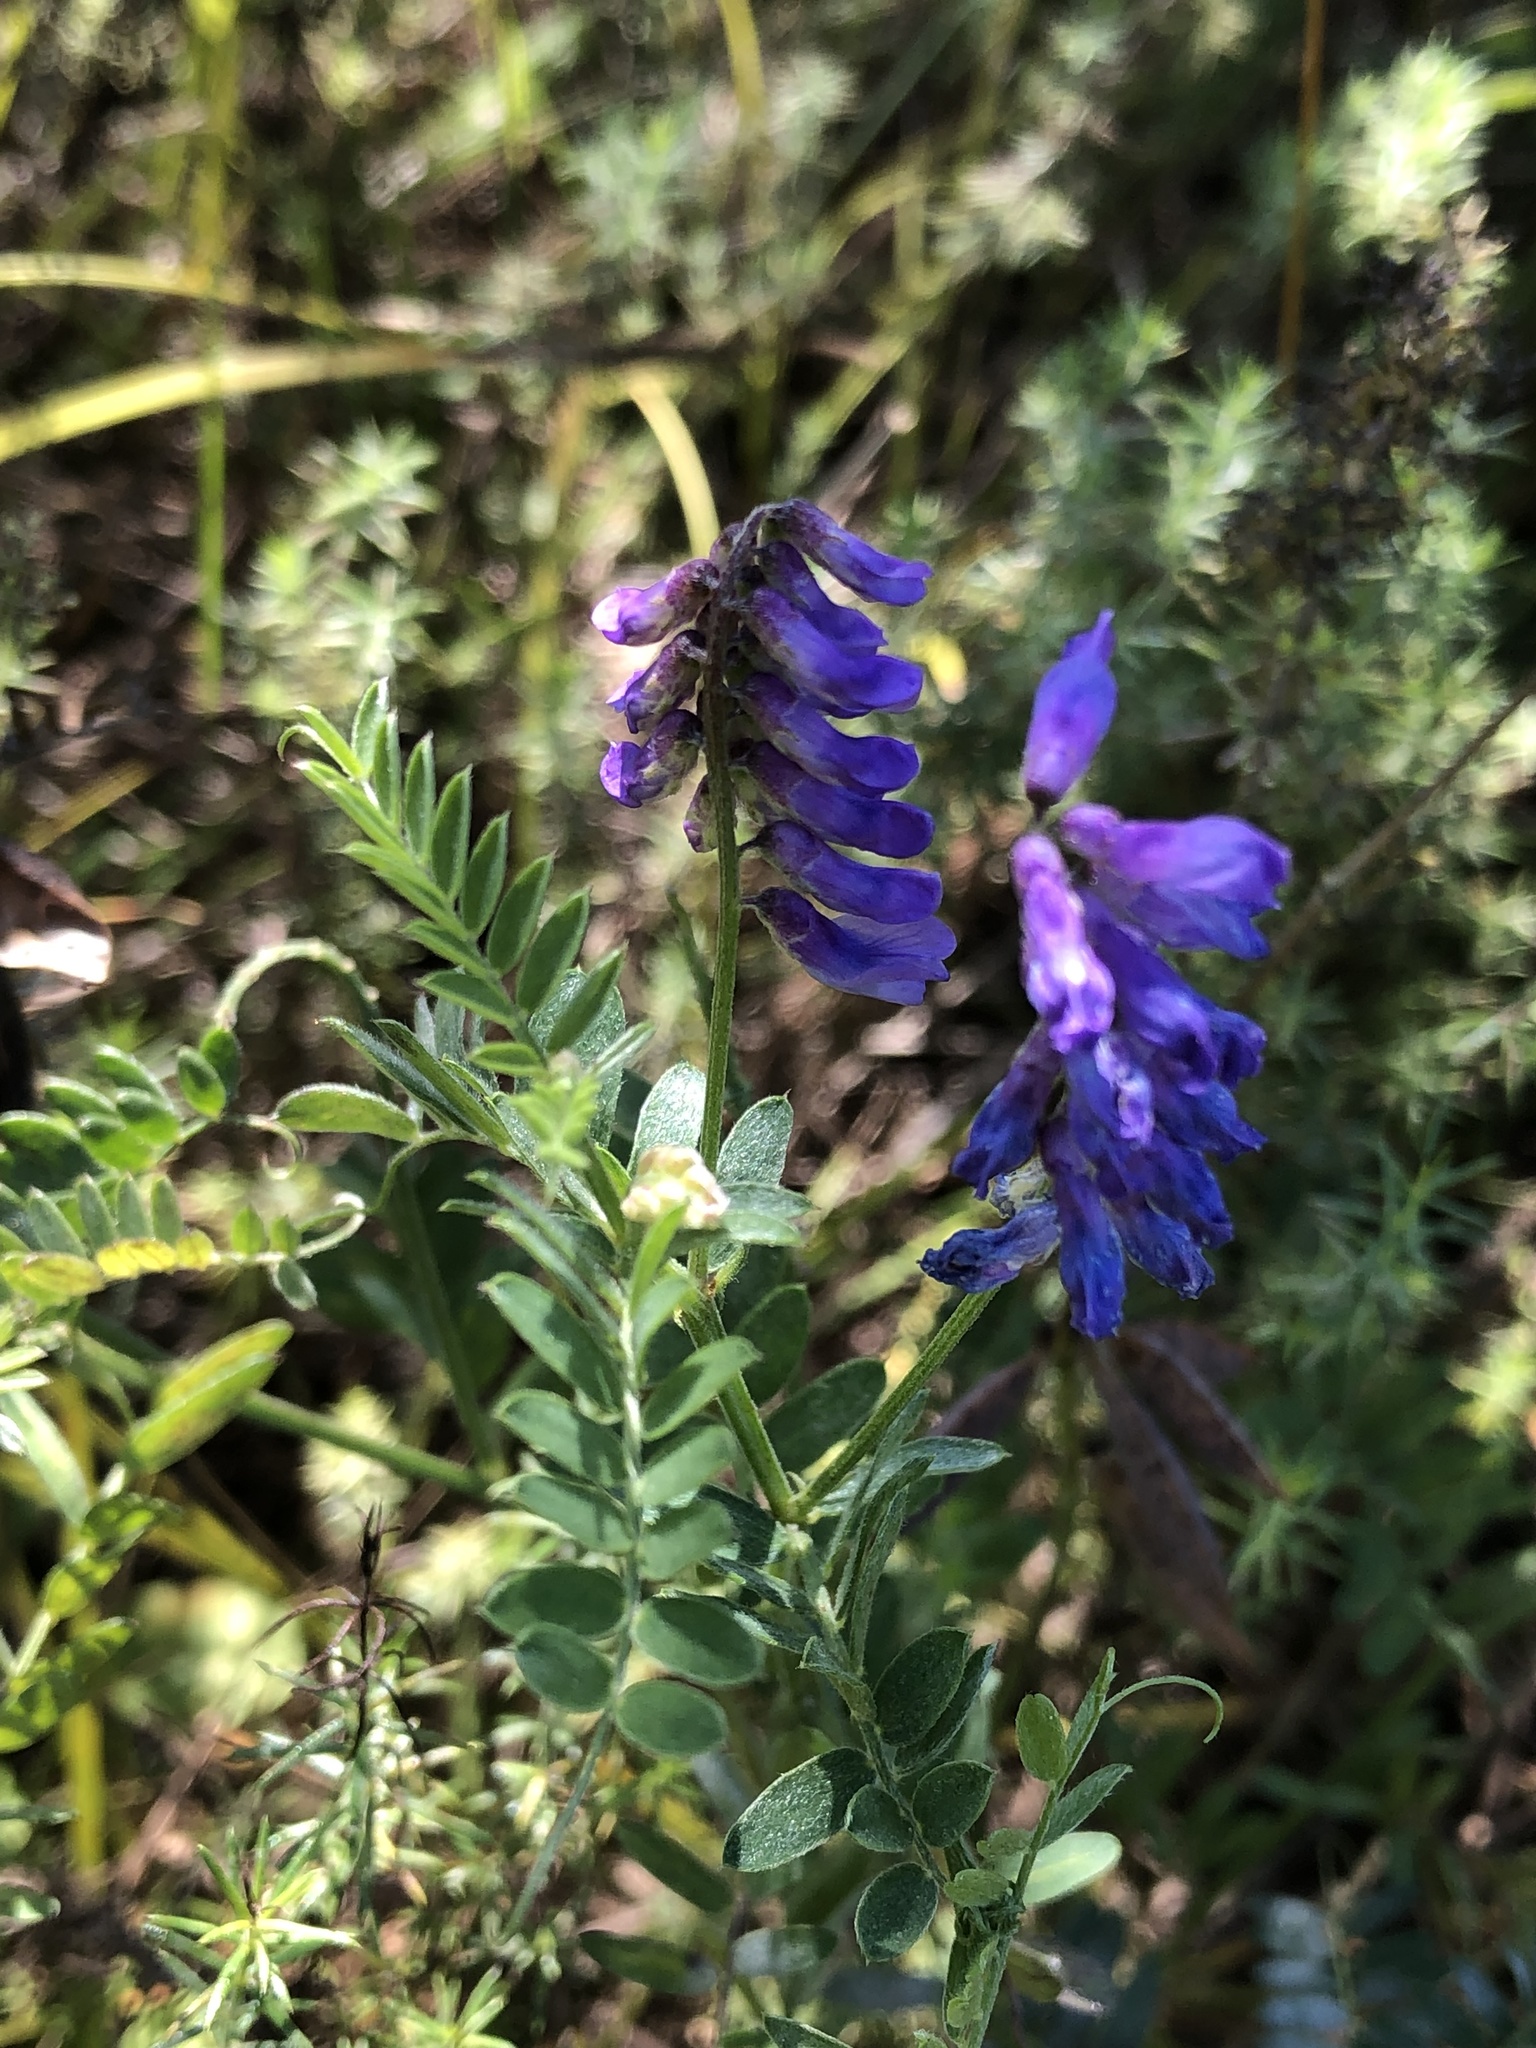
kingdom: Plantae
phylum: Tracheophyta
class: Magnoliopsida
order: Fabales
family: Fabaceae
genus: Vicia
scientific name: Vicia cracca
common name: Bird vetch
